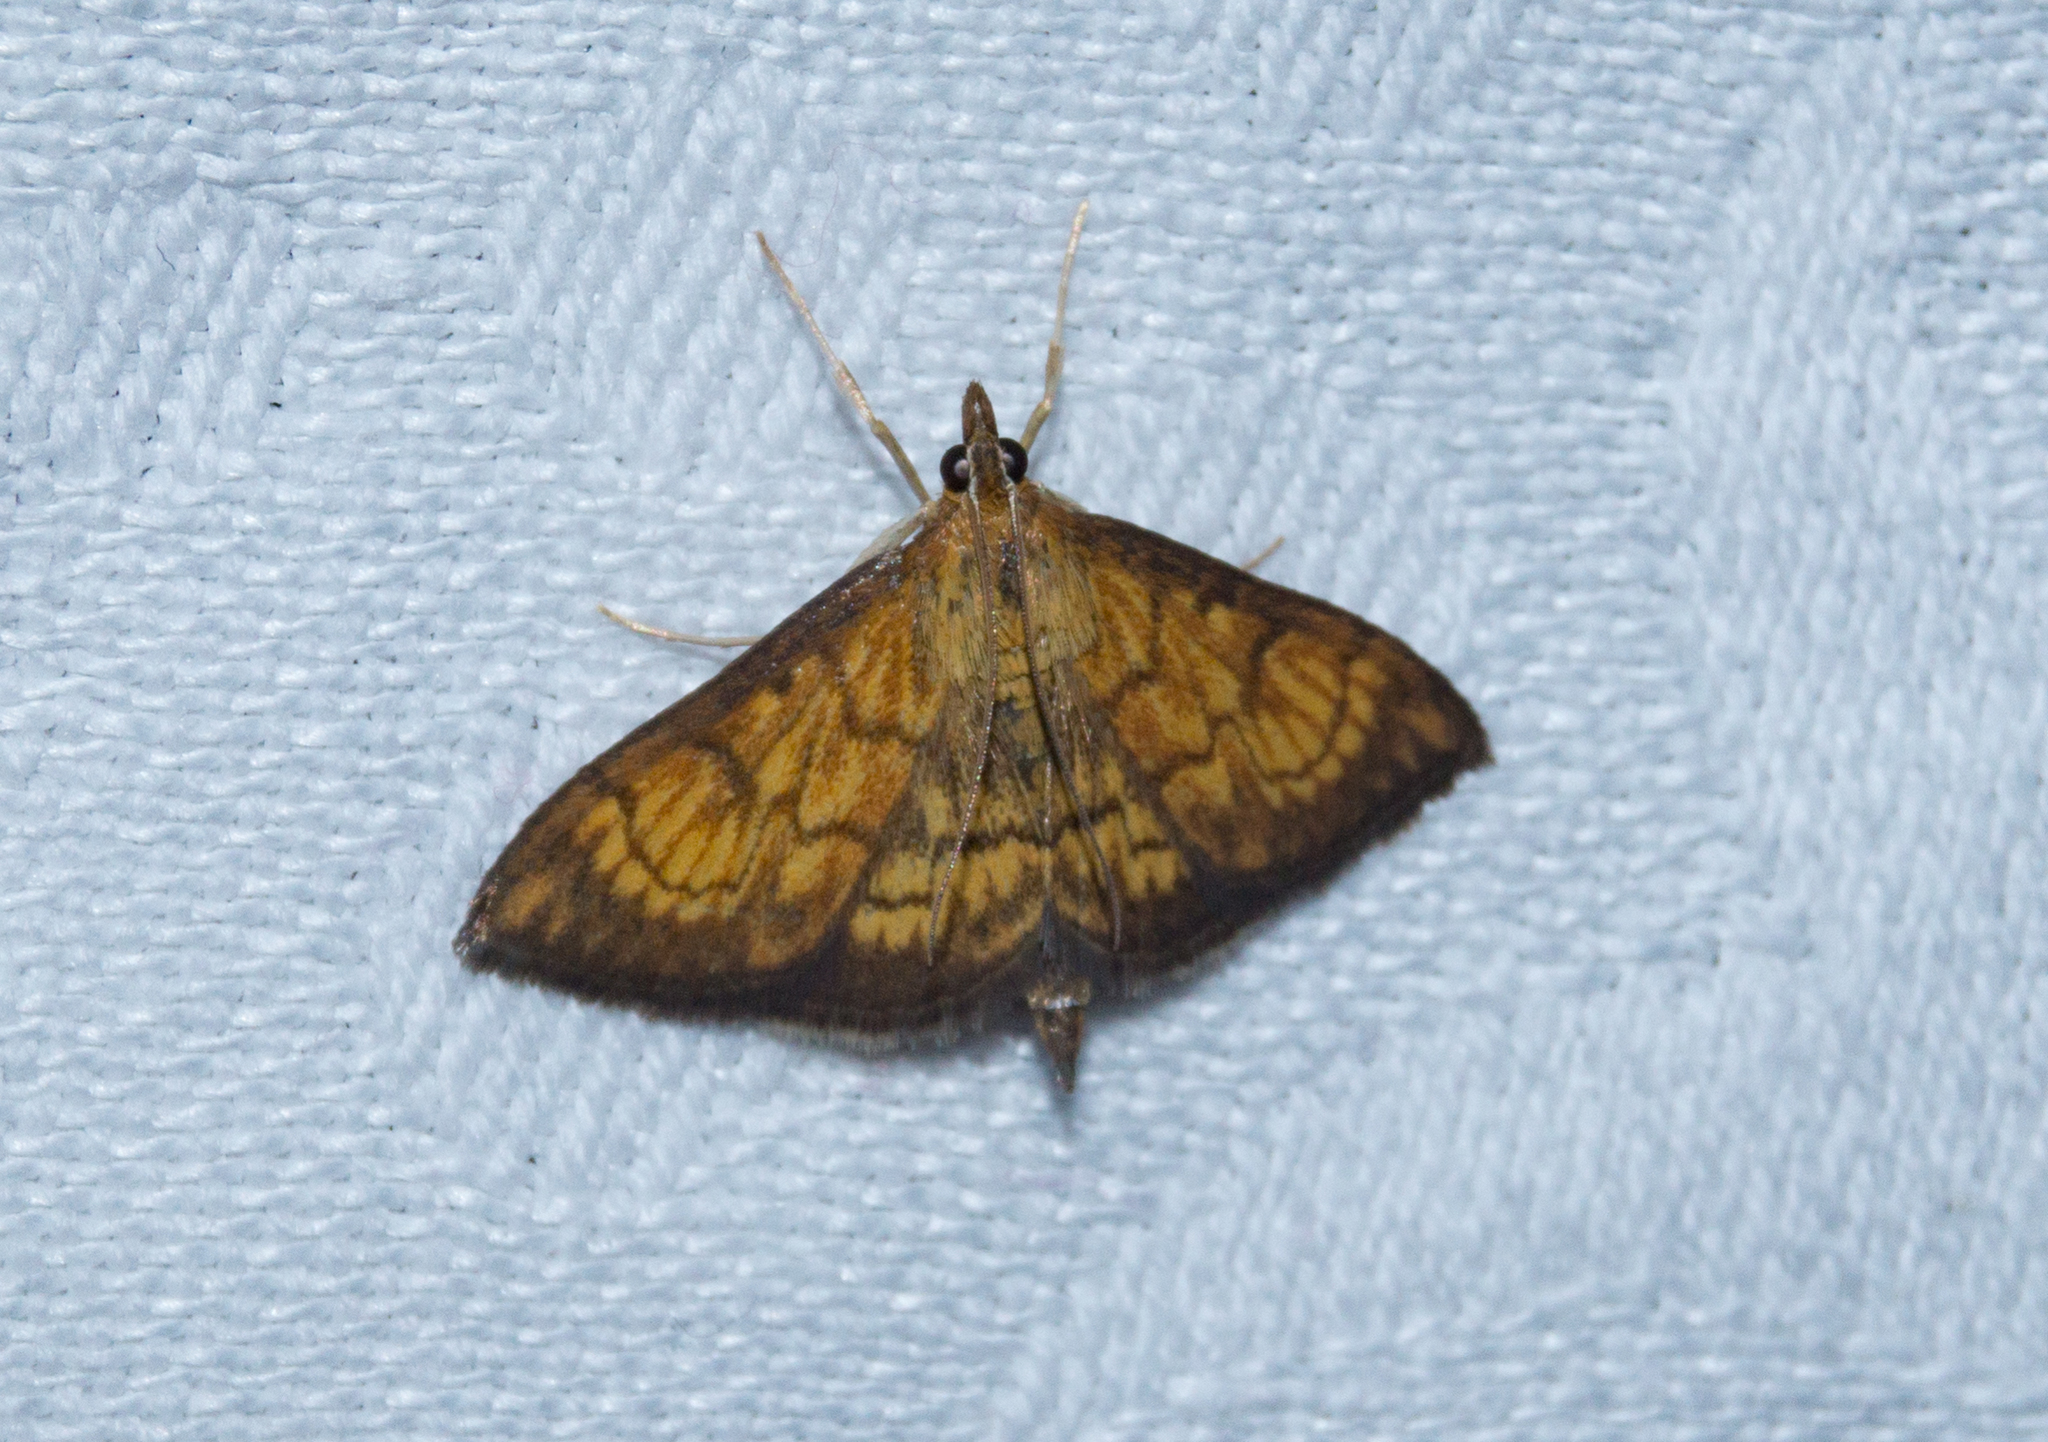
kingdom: Animalia
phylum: Arthropoda
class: Insecta
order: Lepidoptera
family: Crambidae
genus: Ecpyrrhorrhoe
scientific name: Ecpyrrhorrhoe rubiginalis
